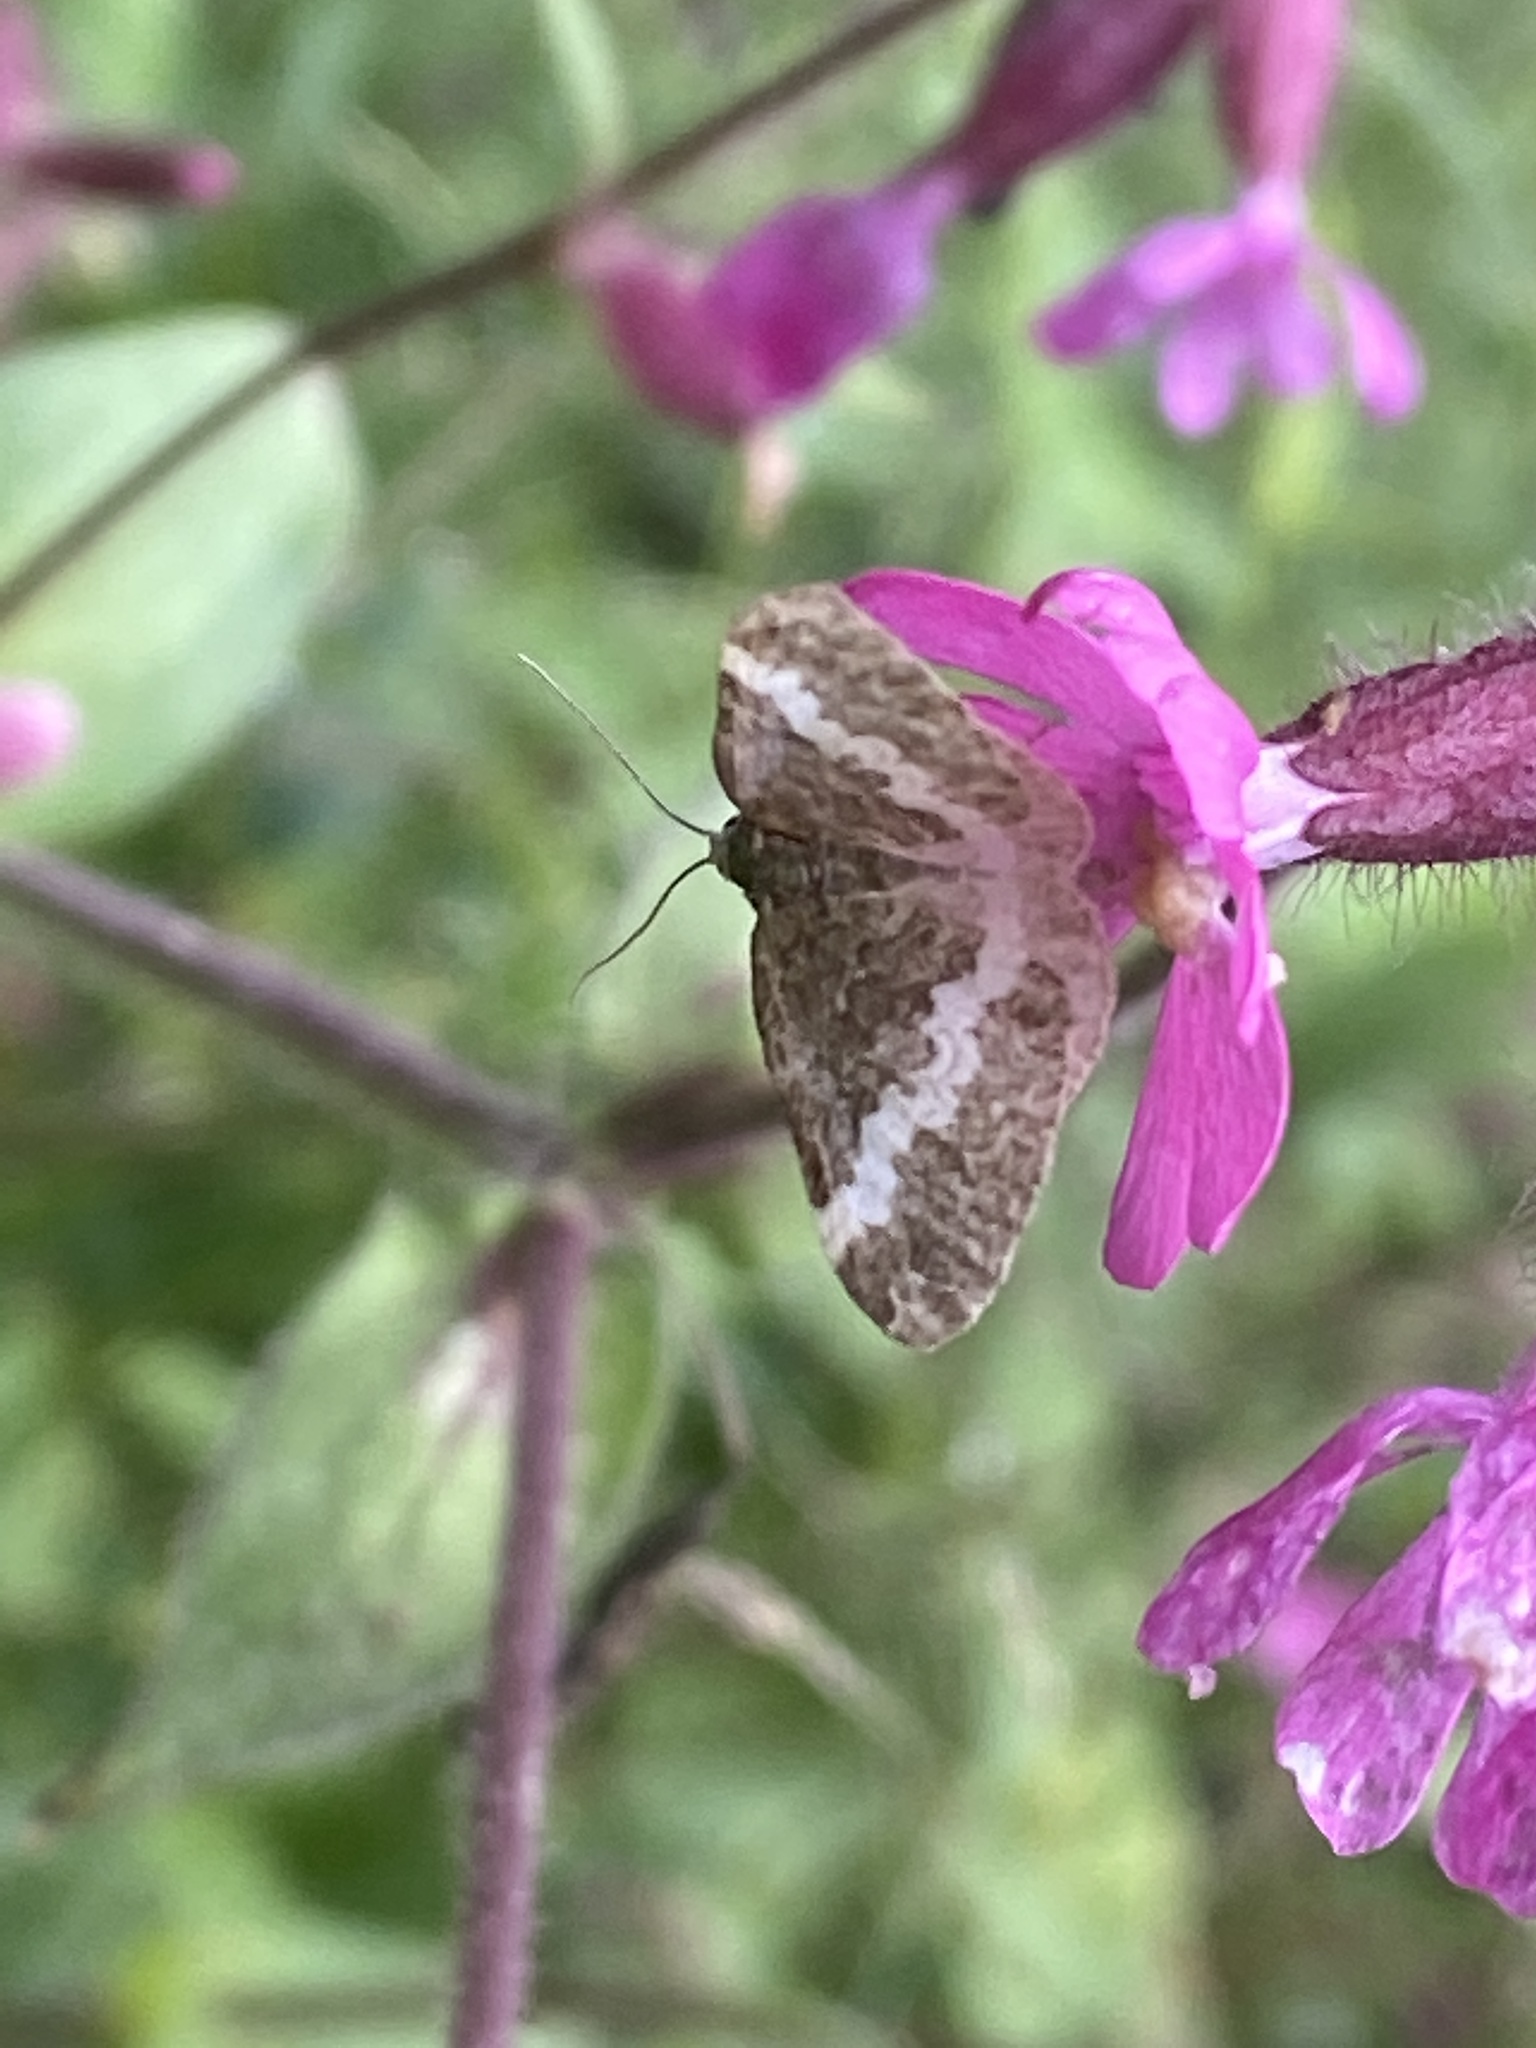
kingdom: Animalia
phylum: Arthropoda
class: Insecta
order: Lepidoptera
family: Geometridae
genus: Perizoma
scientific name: Perizoma alchemillata
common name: Small rivulet
